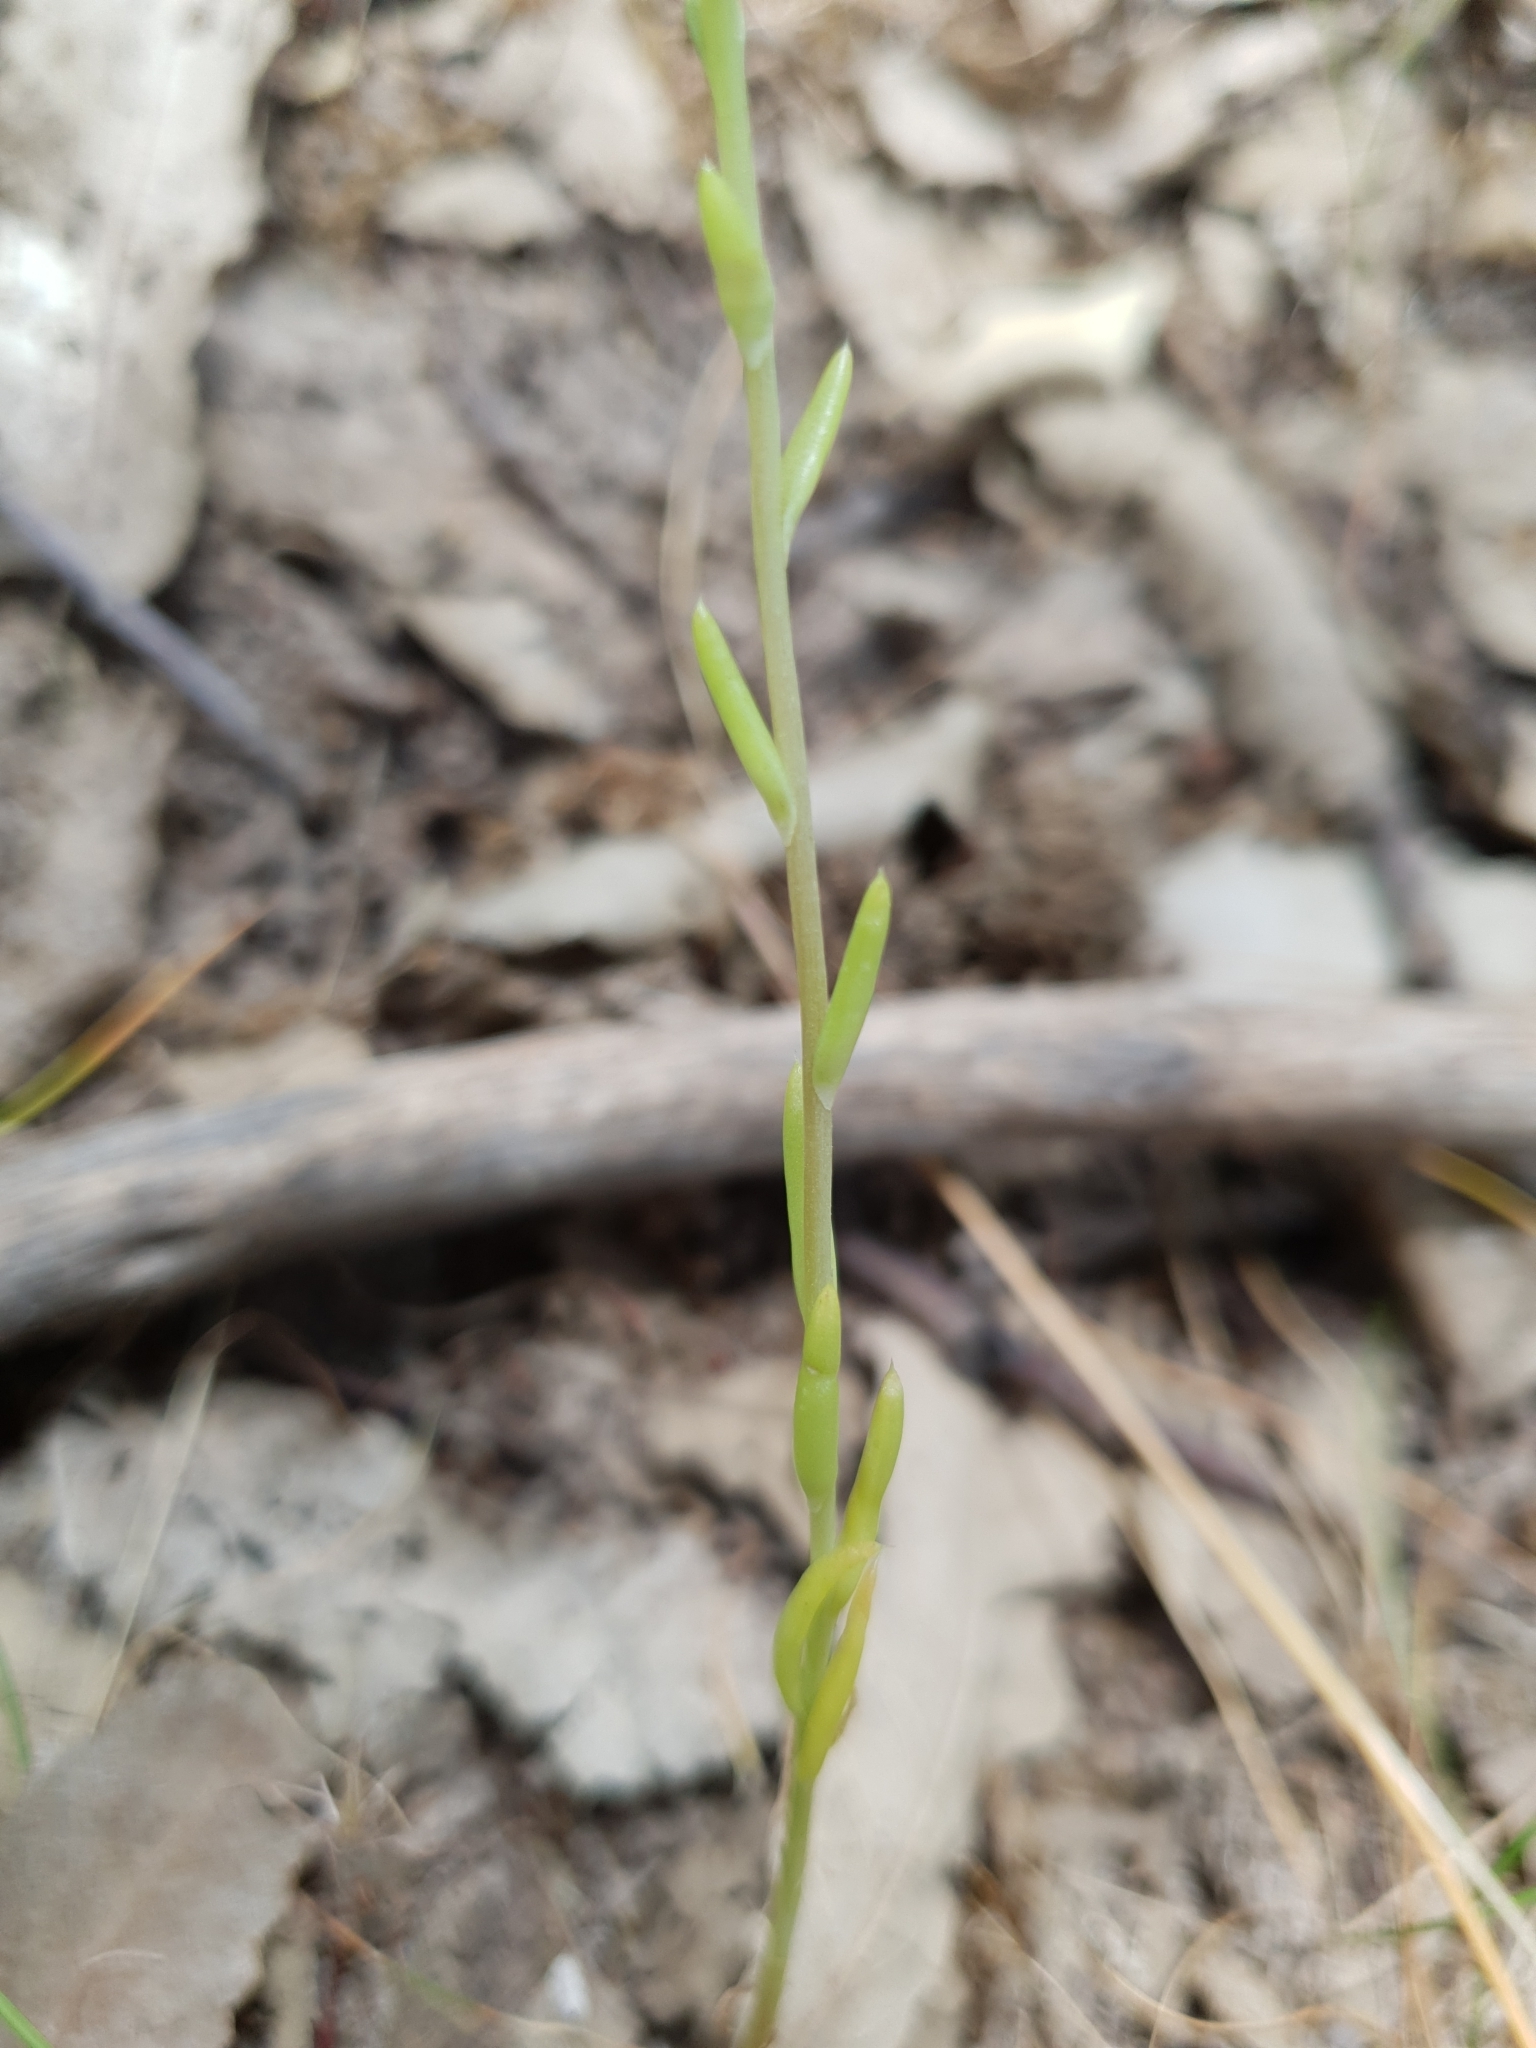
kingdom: Plantae
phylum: Tracheophyta
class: Magnoliopsida
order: Saxifragales
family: Crassulaceae
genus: Petrosedum
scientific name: Petrosedum amplexicaule
